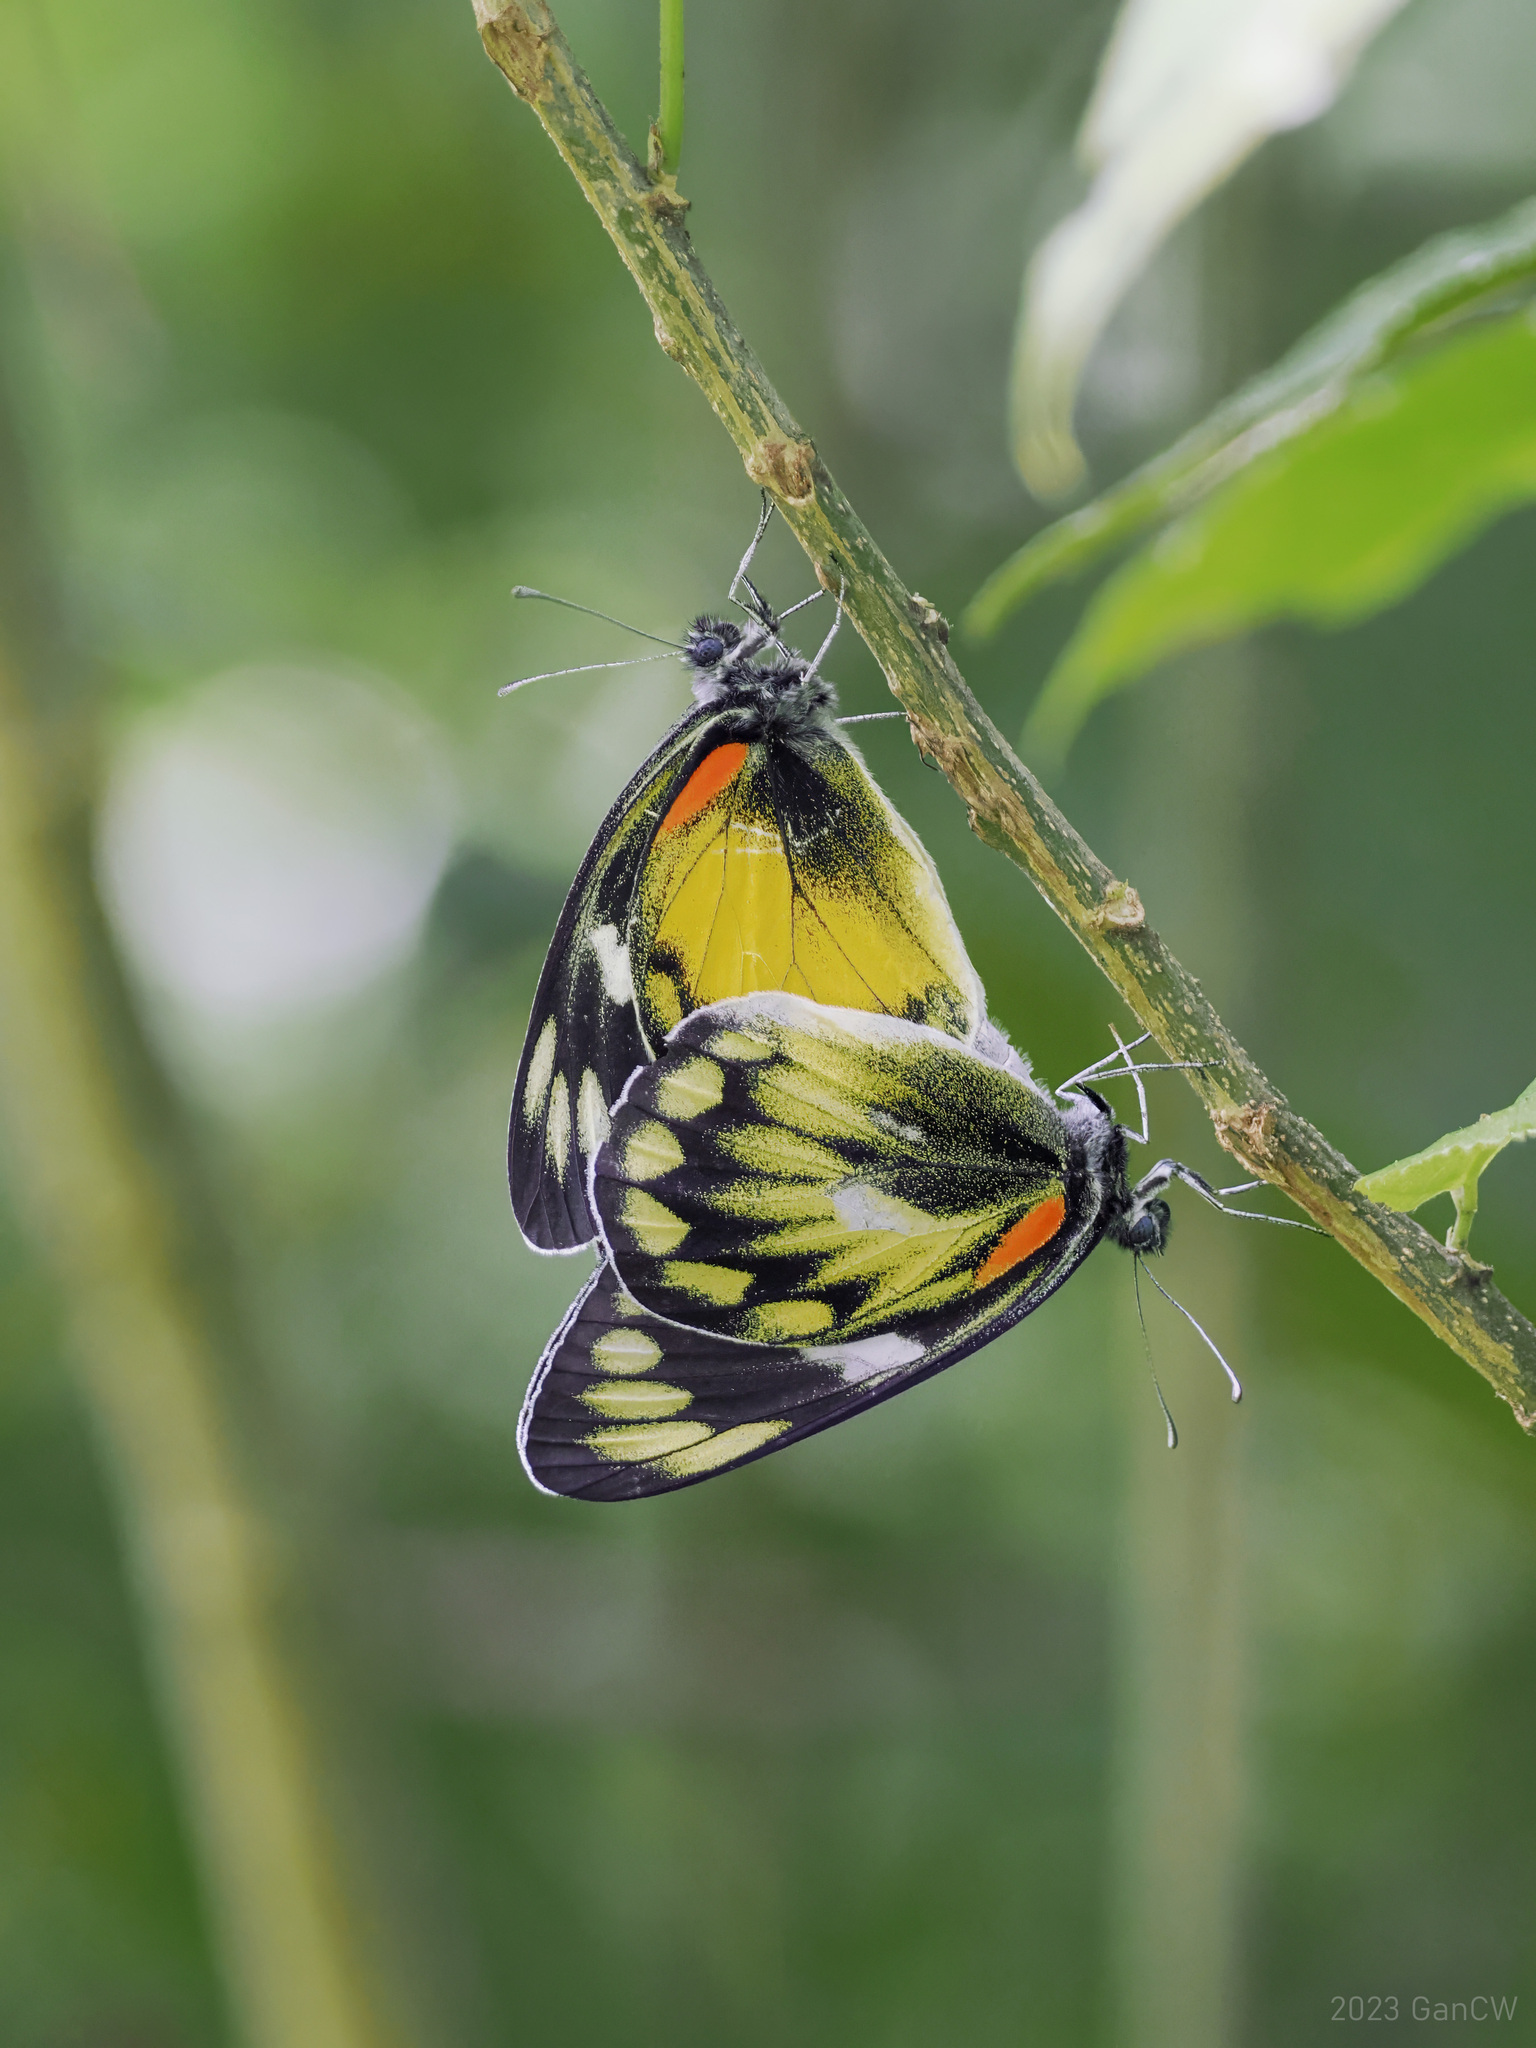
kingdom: Animalia
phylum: Arthropoda
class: Insecta
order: Lepidoptera
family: Pieridae
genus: Delias
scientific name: Delias zebuda
